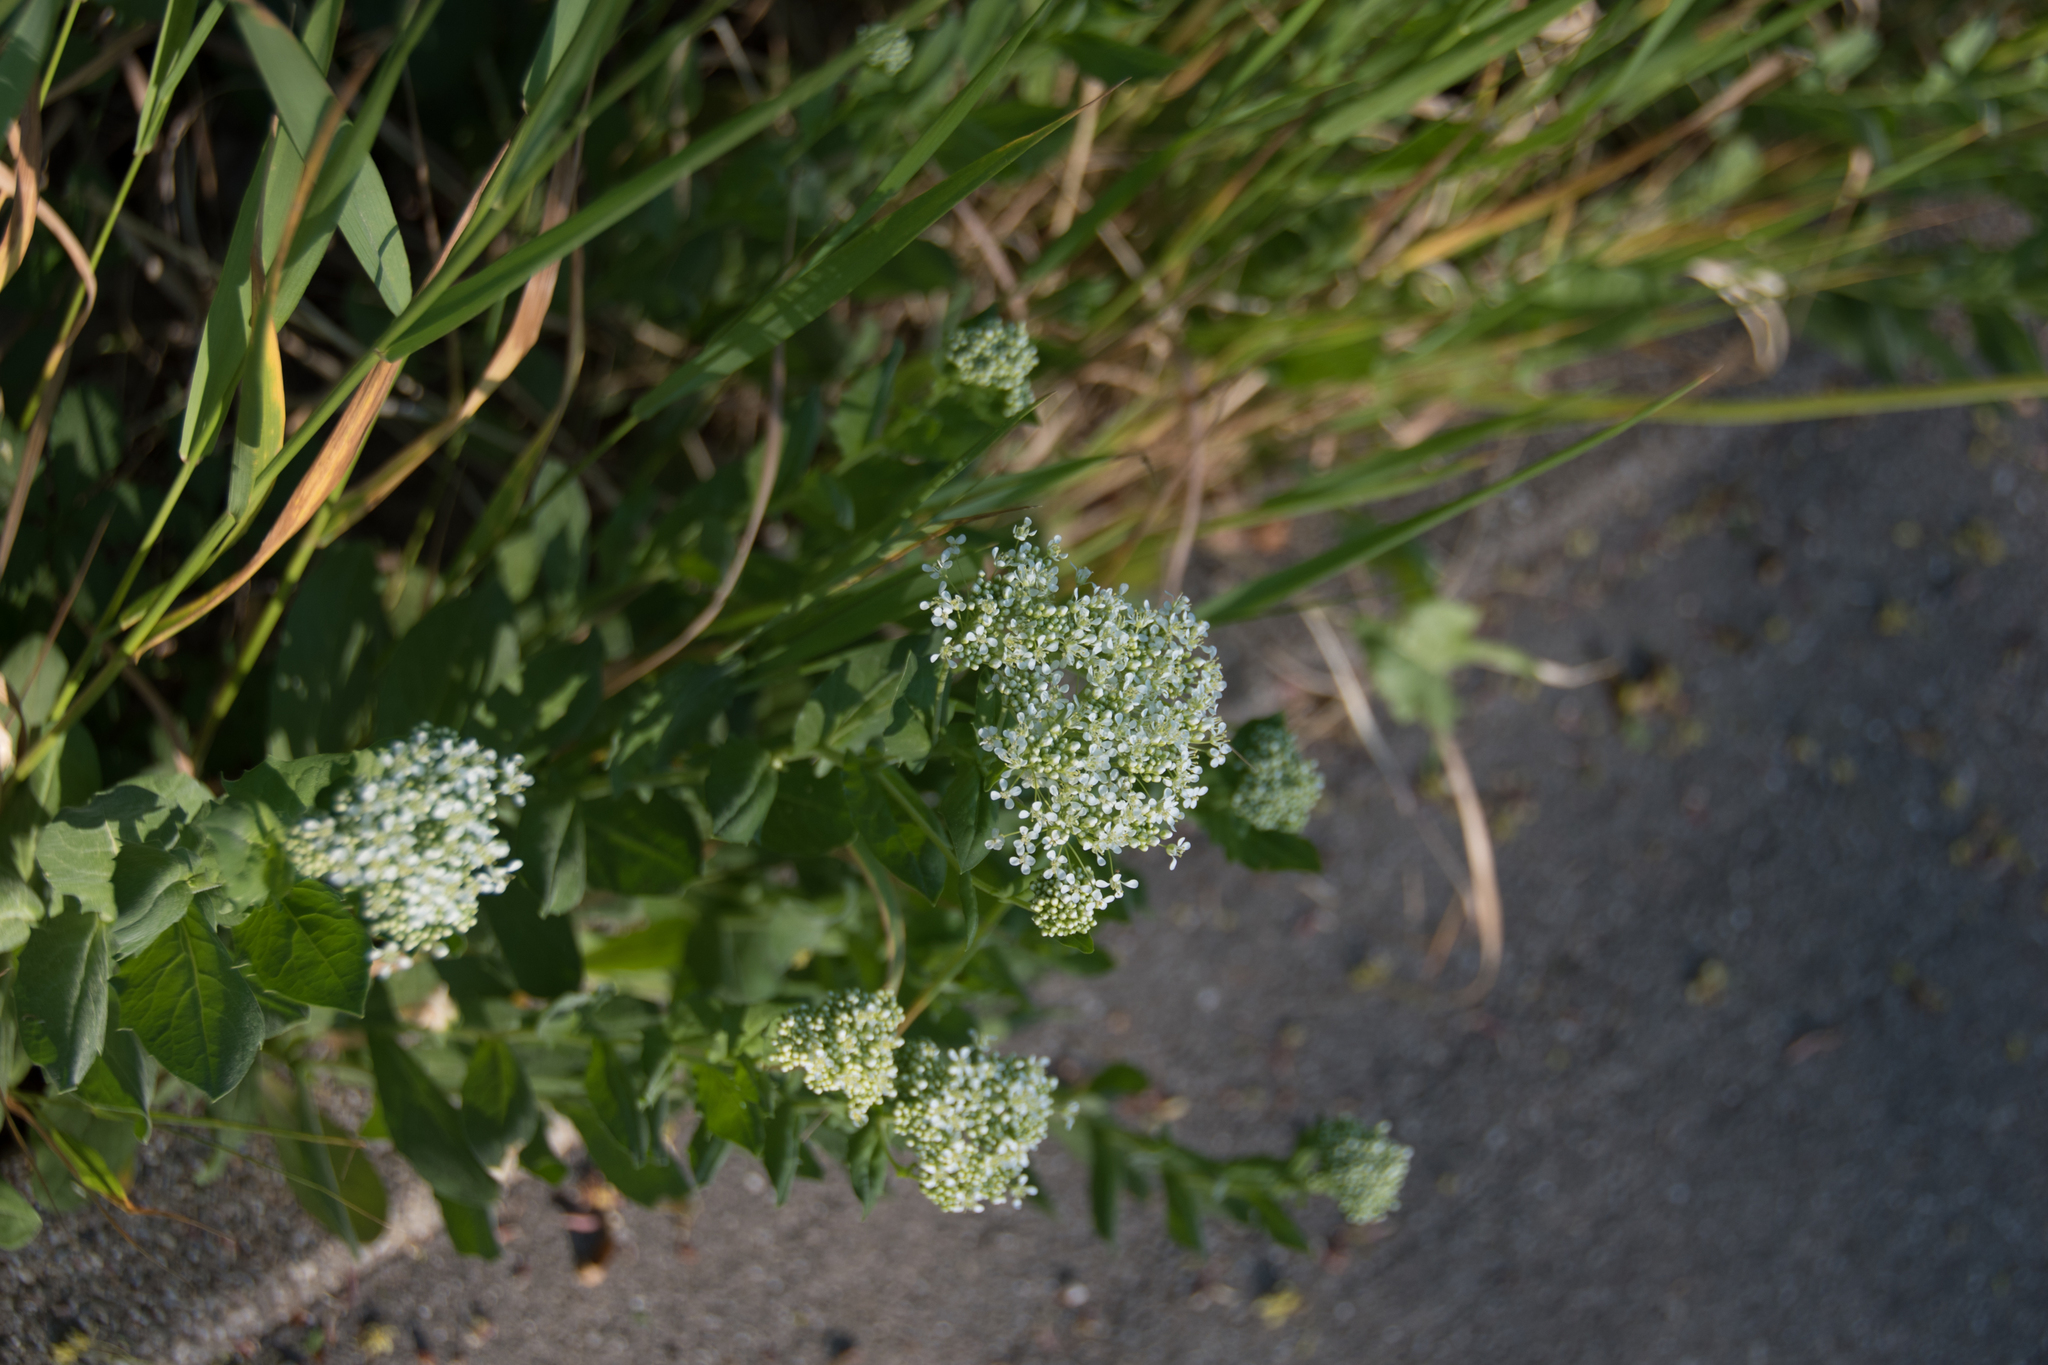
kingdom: Plantae
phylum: Tracheophyta
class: Magnoliopsida
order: Brassicales
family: Brassicaceae
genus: Lepidium
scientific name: Lepidium draba
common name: Hoary cress
